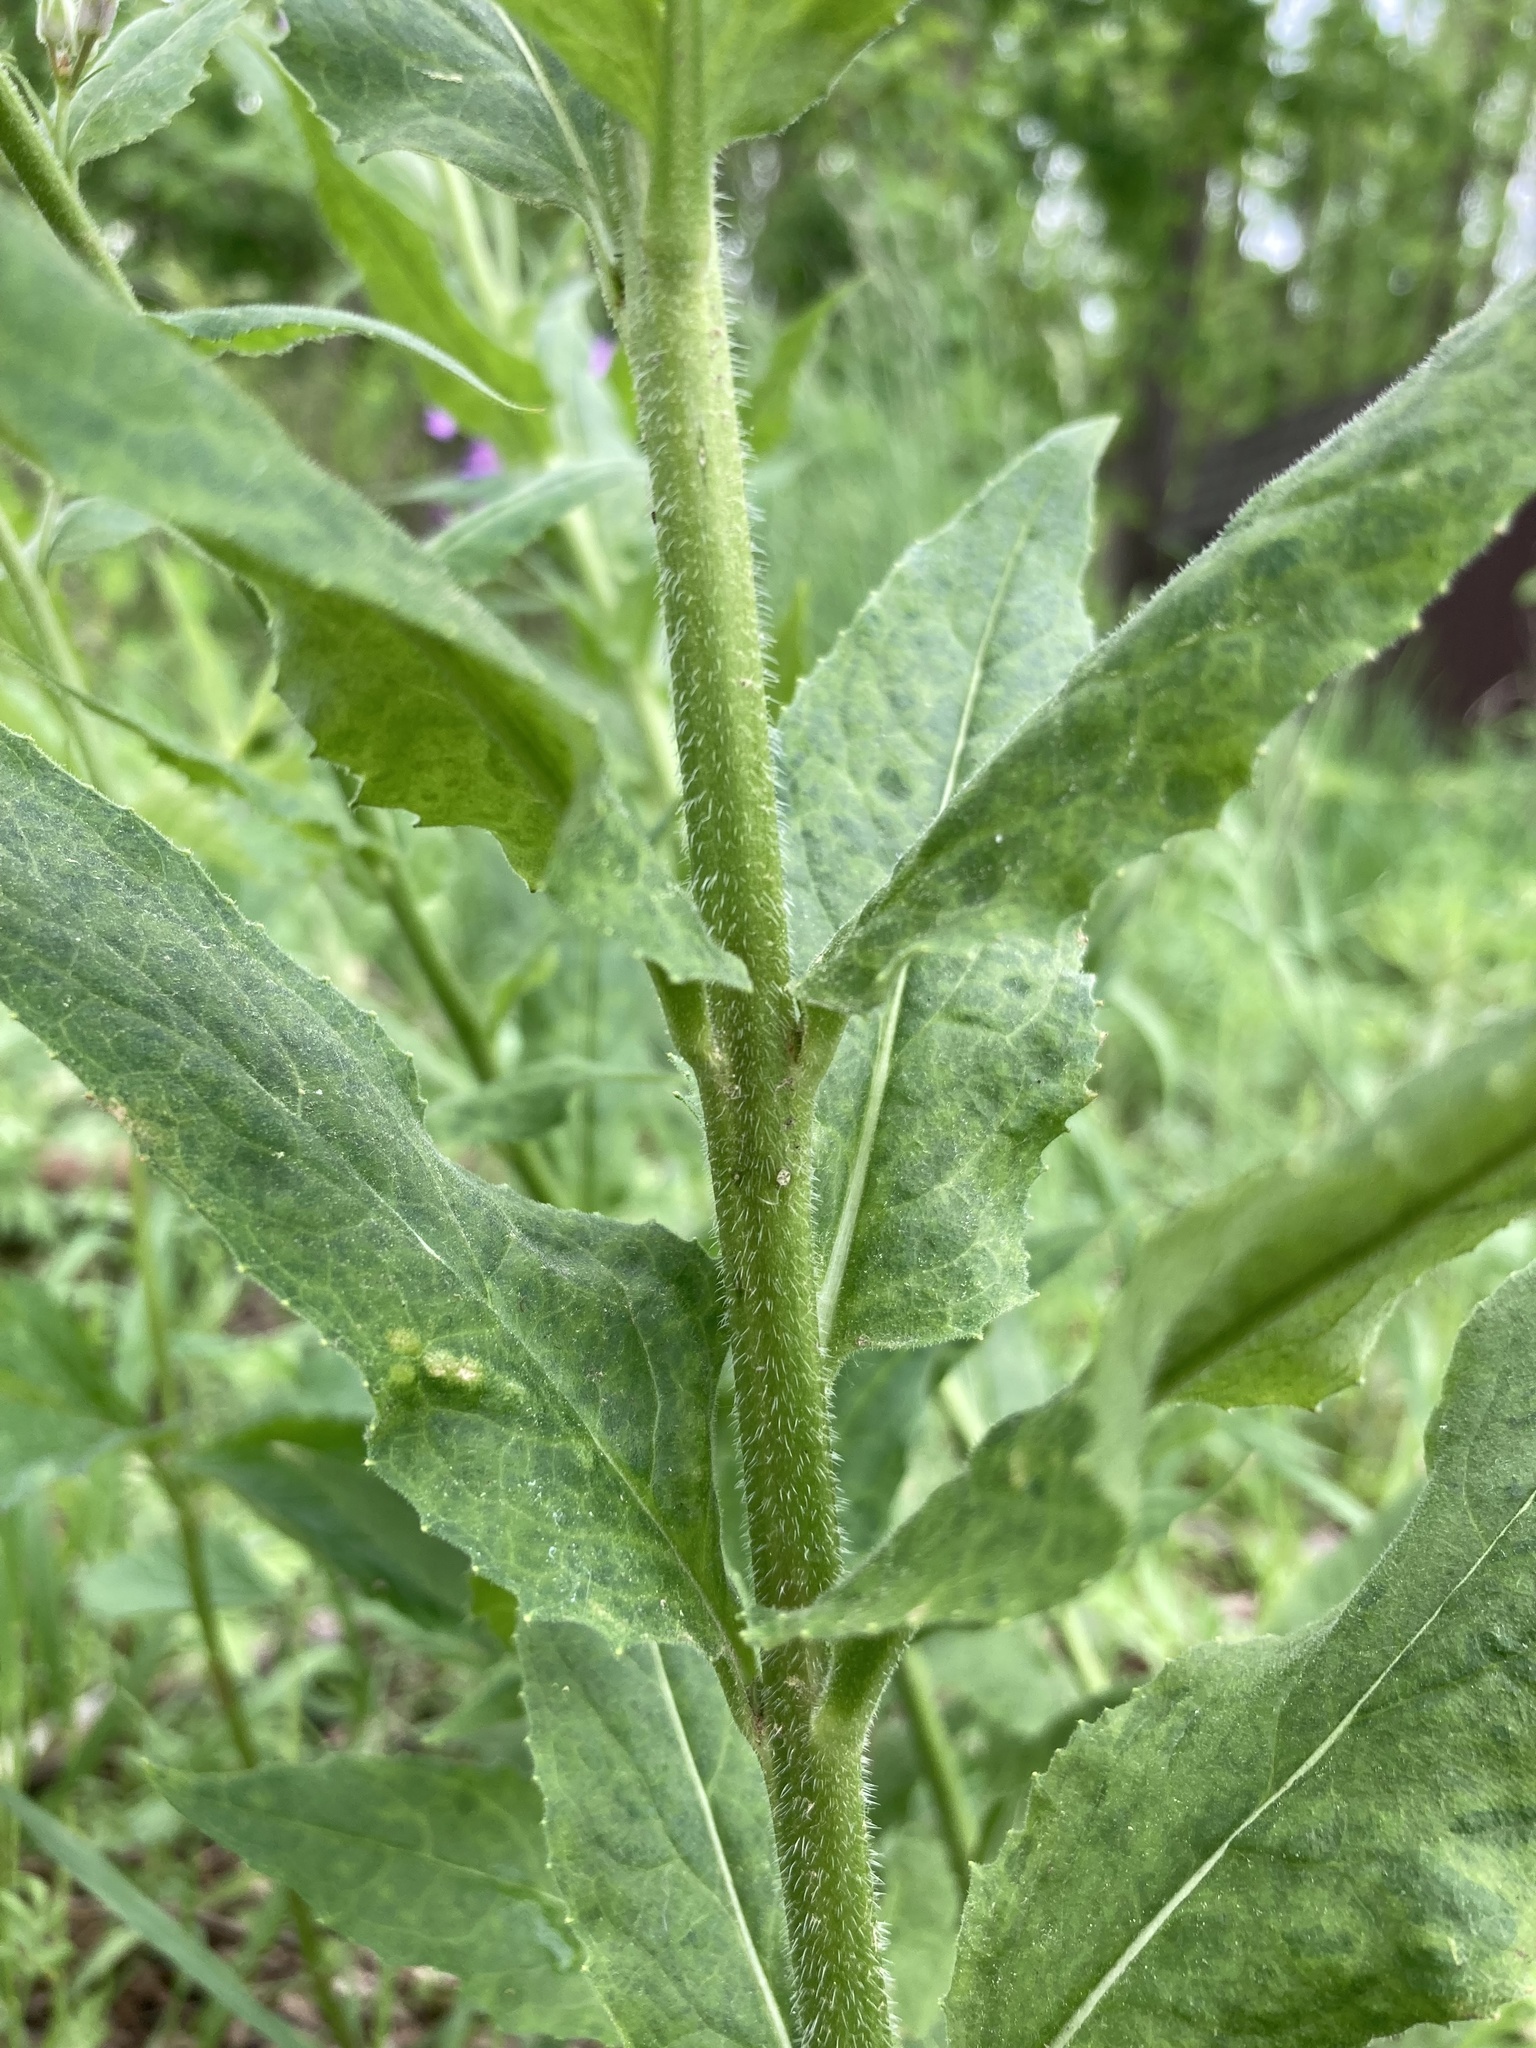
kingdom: Plantae
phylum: Tracheophyta
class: Magnoliopsida
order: Brassicales
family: Brassicaceae
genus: Hesperis
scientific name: Hesperis matronalis
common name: Dame's-violet
